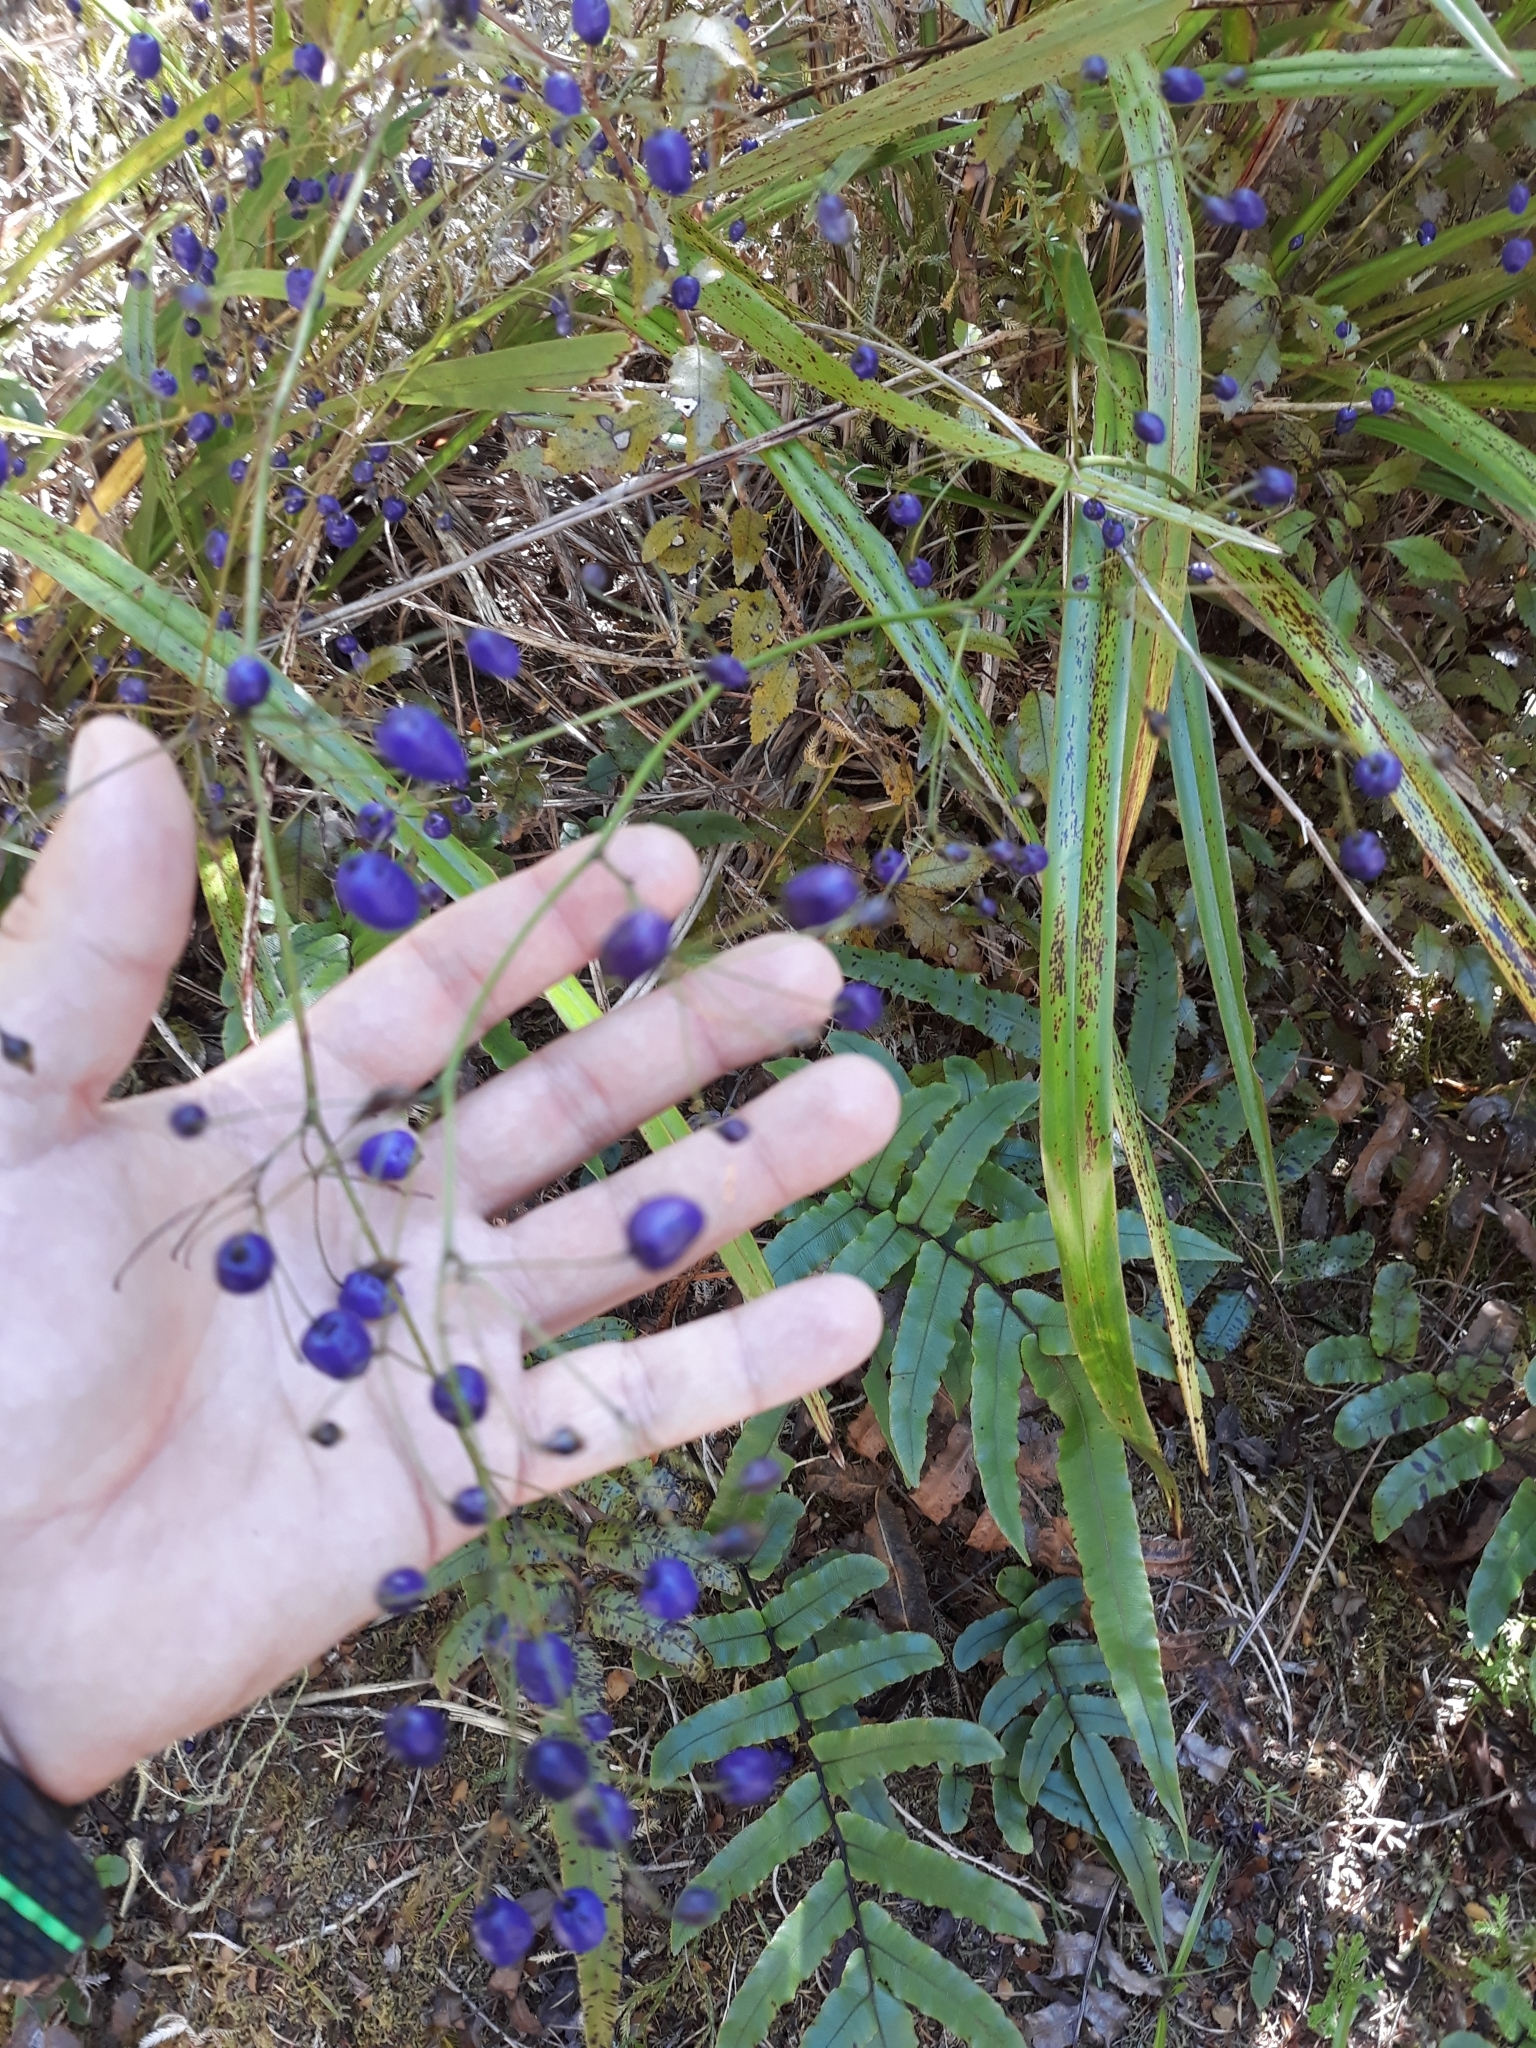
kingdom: Plantae
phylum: Tracheophyta
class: Liliopsida
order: Asparagales
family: Asphodelaceae
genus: Dianella
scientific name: Dianella nigra
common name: New zealand-blueberry
